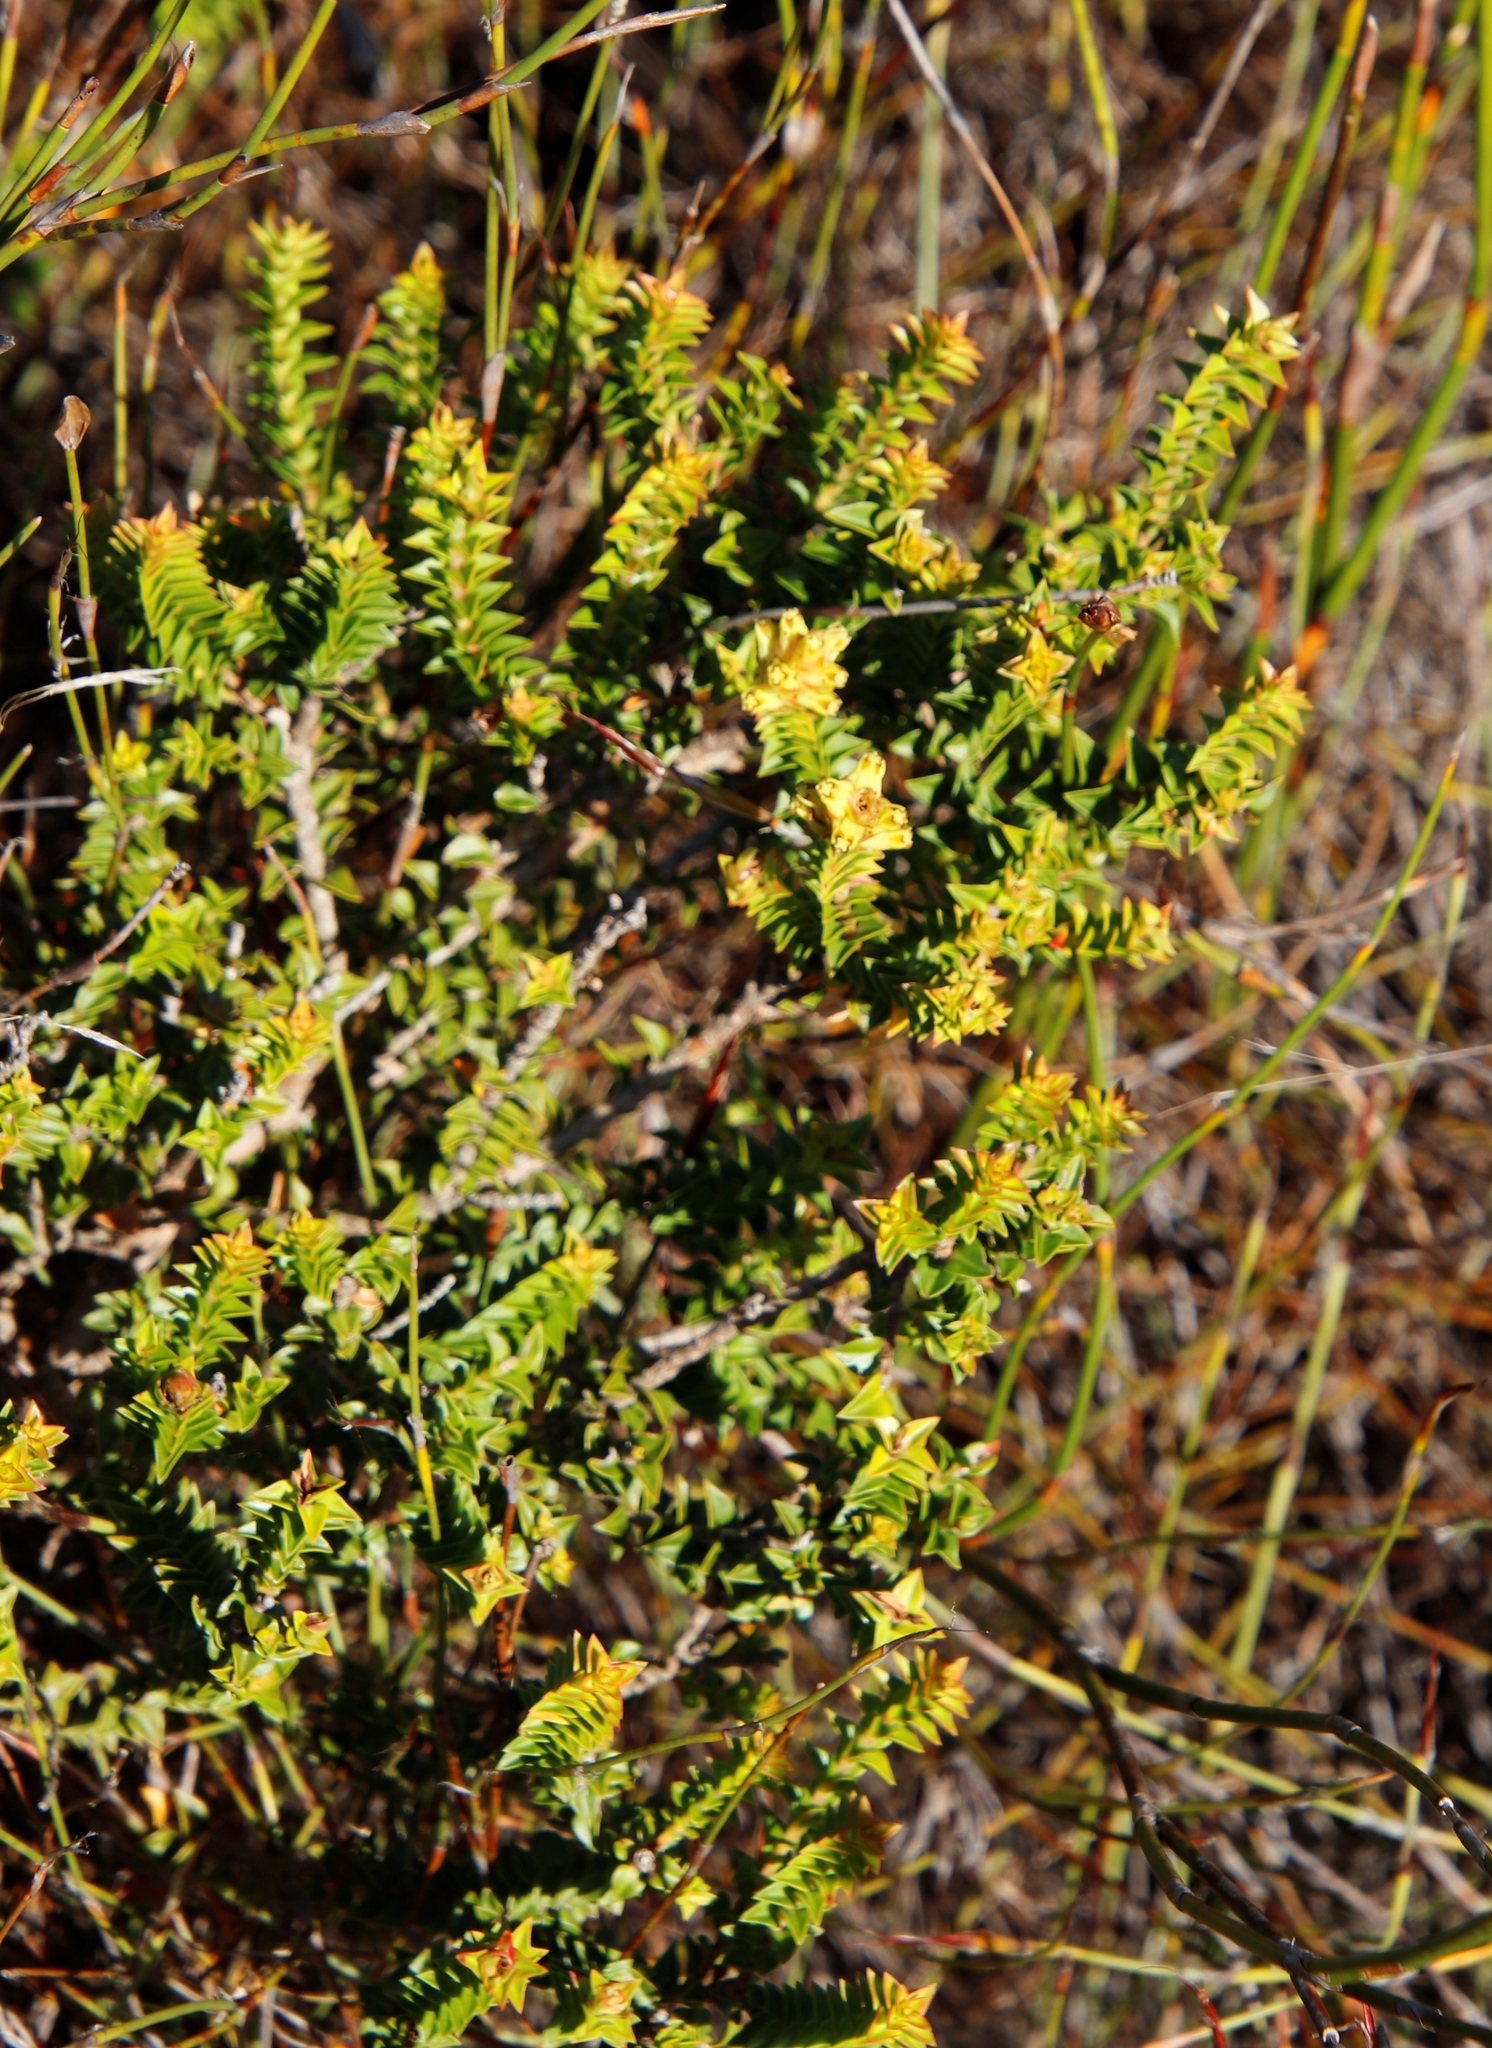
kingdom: Plantae
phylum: Tracheophyta
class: Magnoliopsida
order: Myrtales
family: Penaeaceae
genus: Penaea
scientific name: Penaea mucronata
